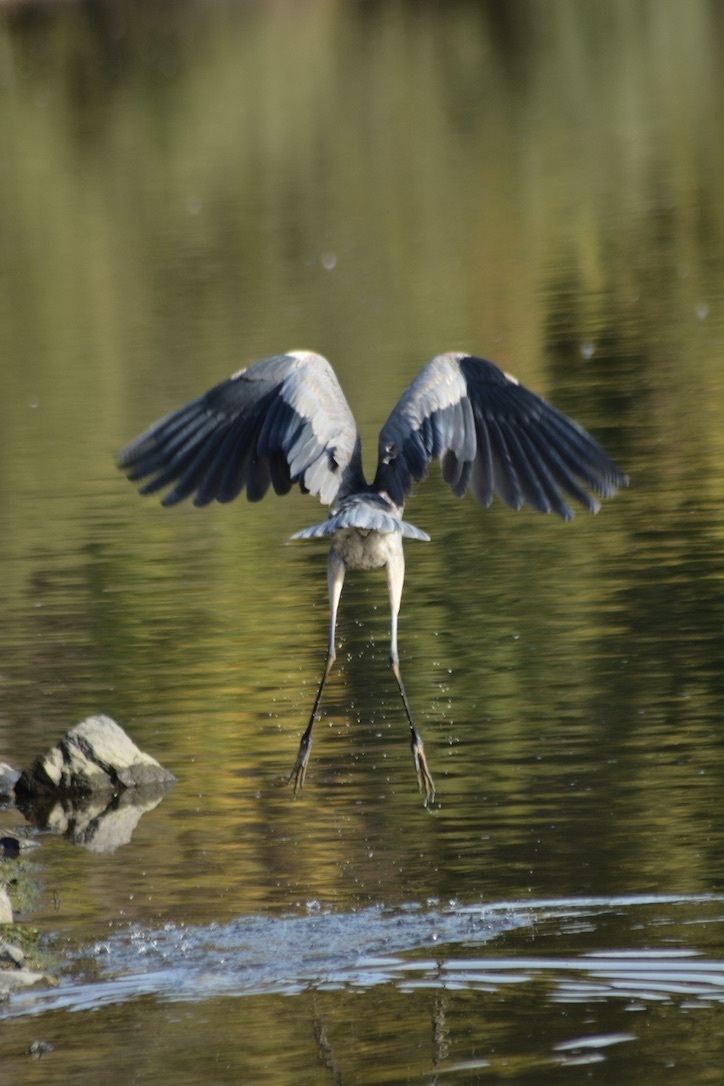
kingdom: Animalia
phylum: Chordata
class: Aves
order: Pelecaniformes
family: Ardeidae
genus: Ardea
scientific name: Ardea herodias
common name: Great blue heron
